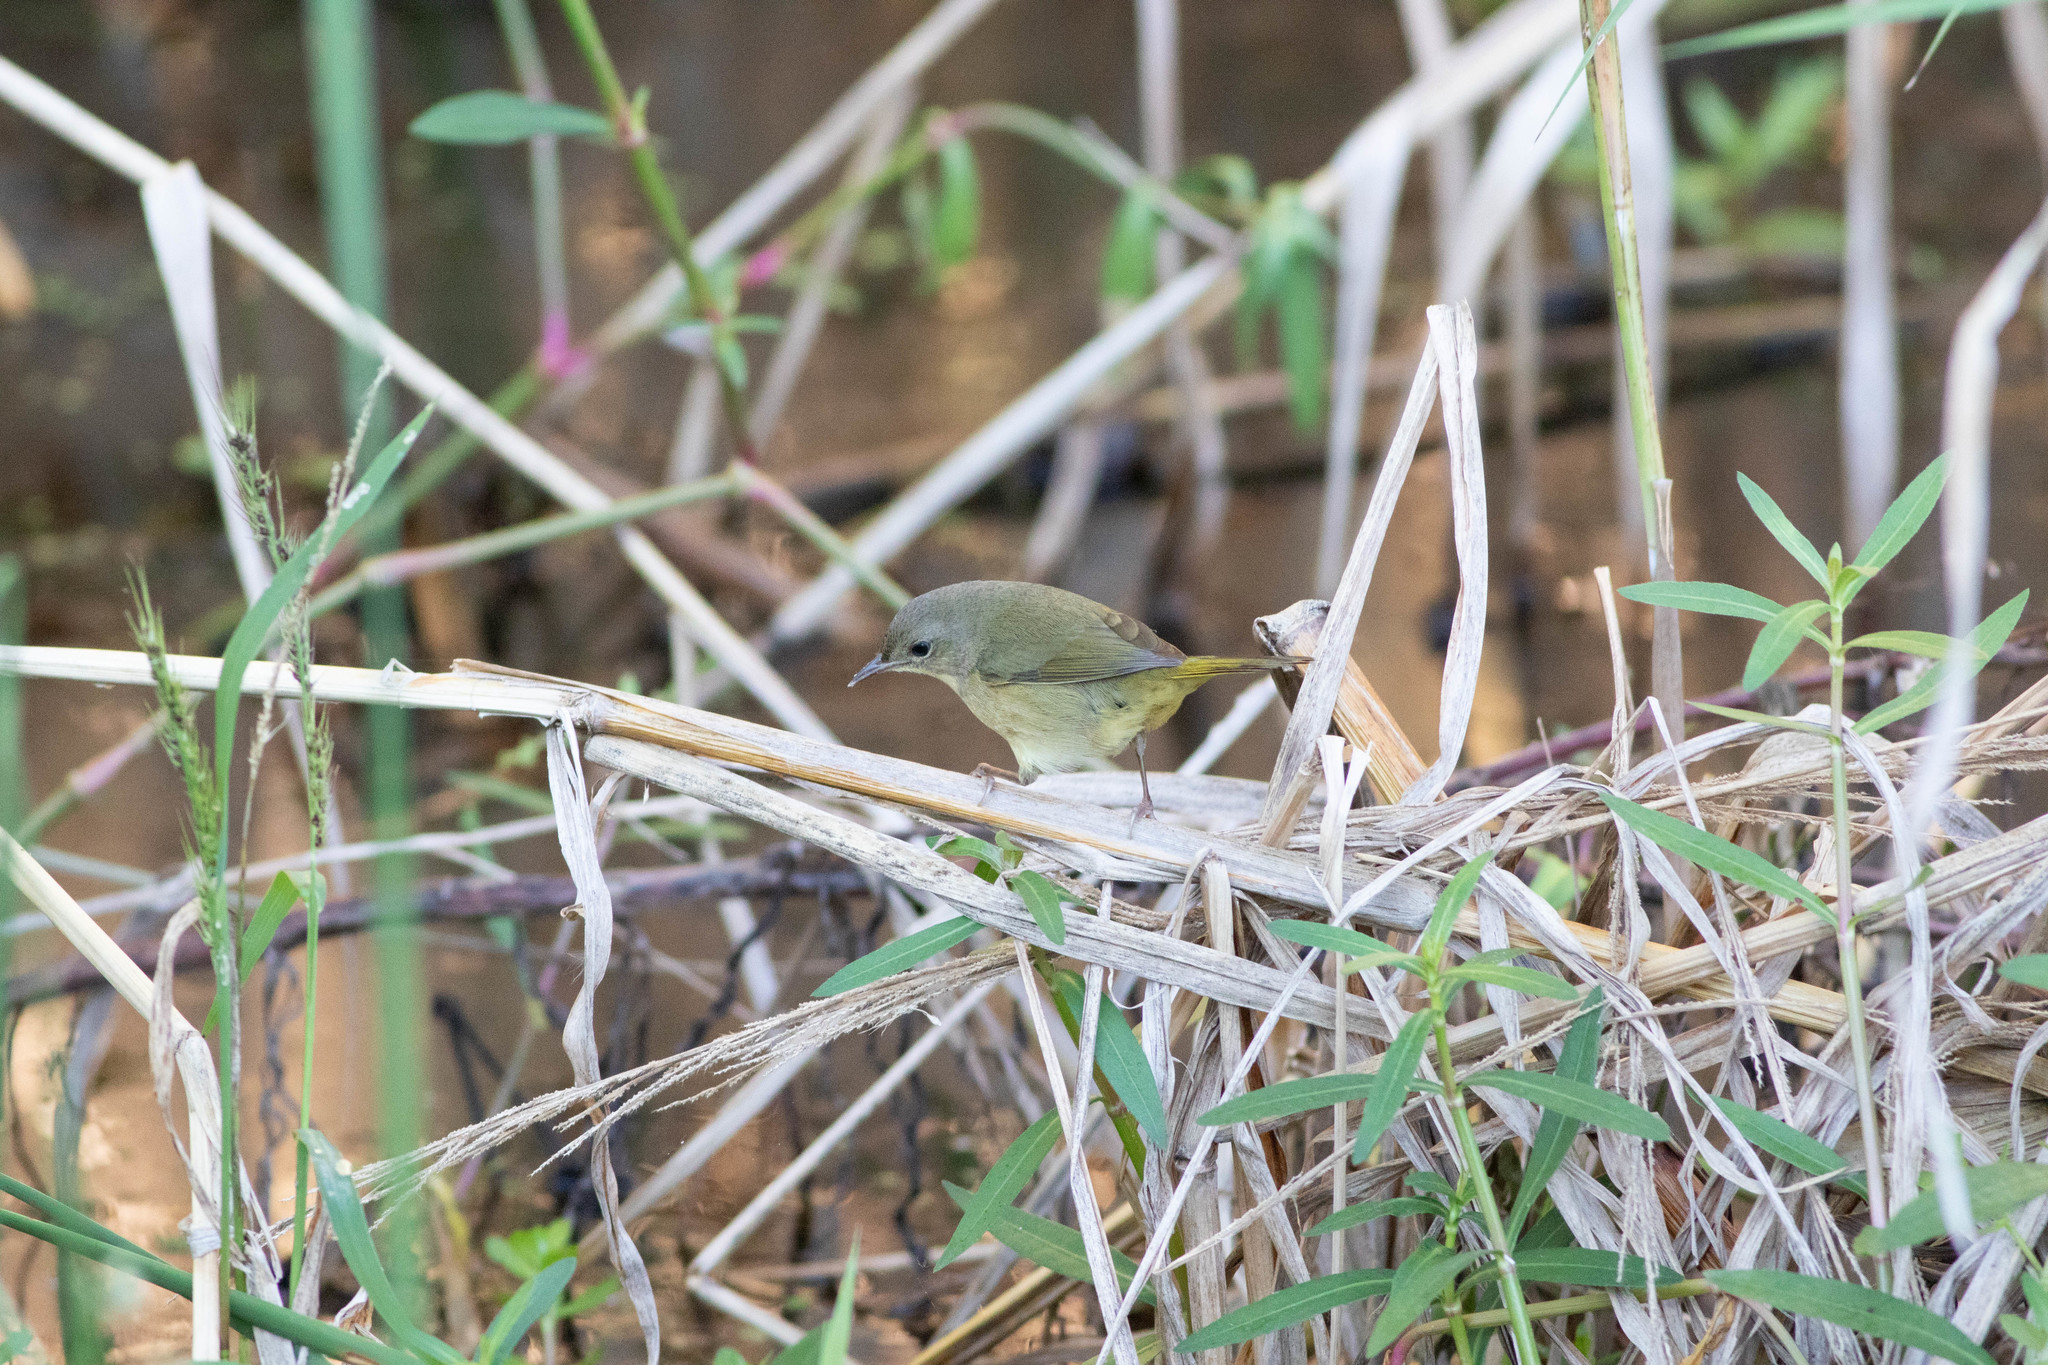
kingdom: Animalia
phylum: Chordata
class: Aves
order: Passeriformes
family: Parulidae
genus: Geothlypis
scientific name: Geothlypis trichas
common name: Common yellowthroat
